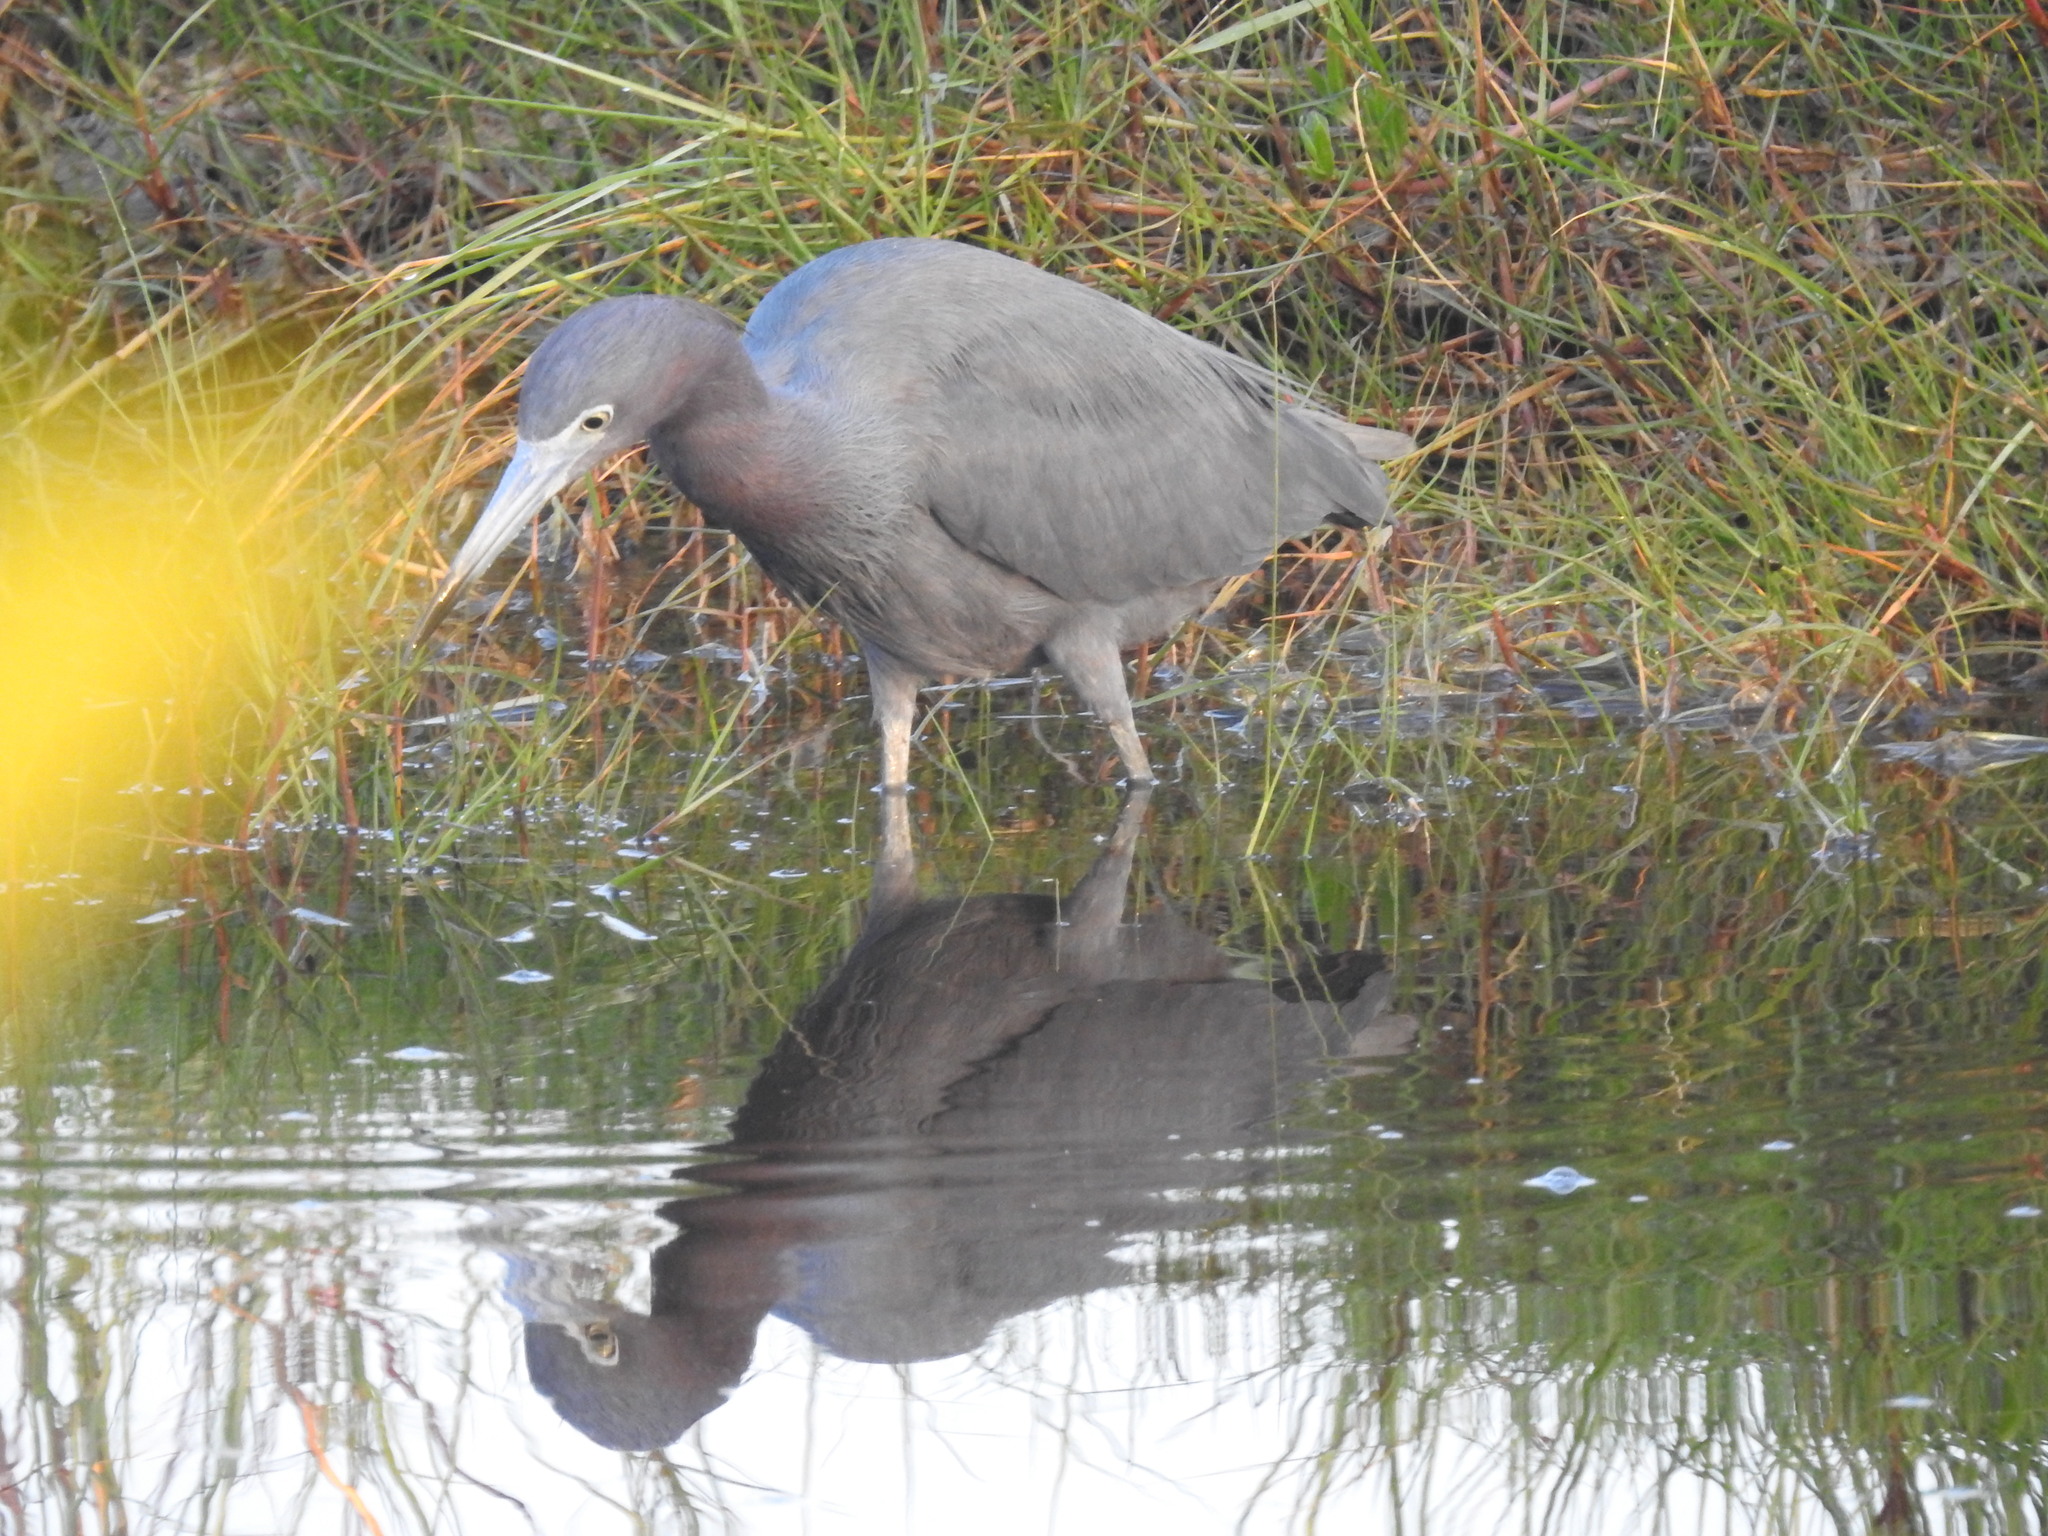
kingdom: Animalia
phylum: Chordata
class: Aves
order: Pelecaniformes
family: Ardeidae
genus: Egretta
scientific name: Egretta caerulea
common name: Little blue heron
